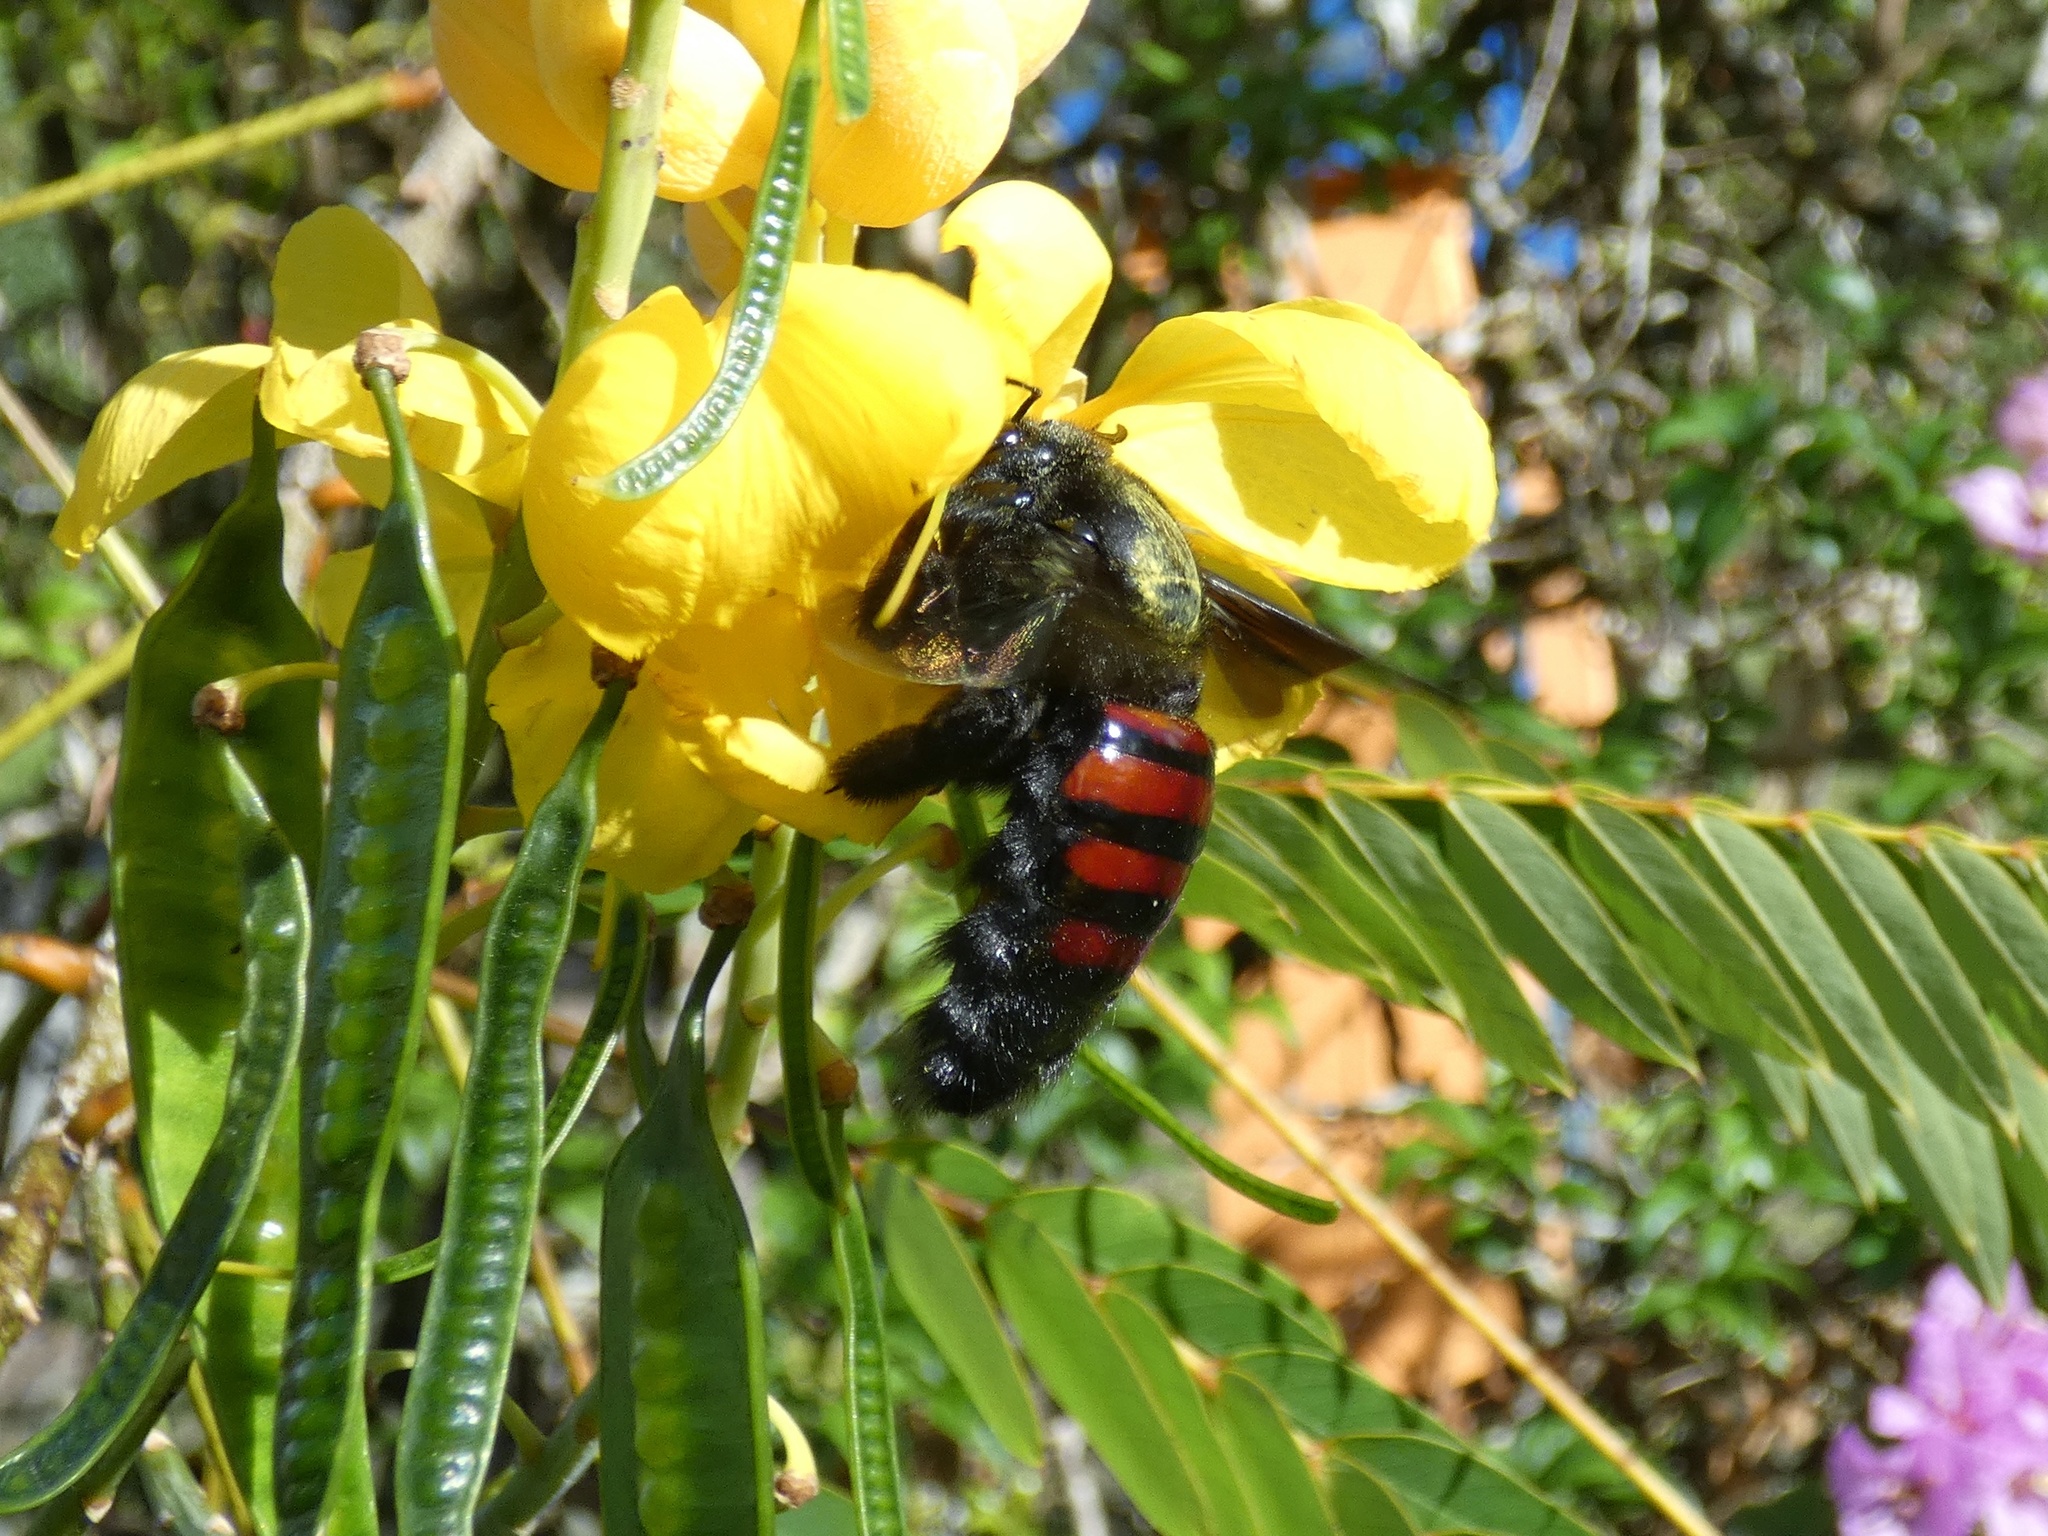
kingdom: Animalia
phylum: Arthropoda
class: Insecta
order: Hymenoptera
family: Apidae
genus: Xylocopa
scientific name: Xylocopa frontalis
